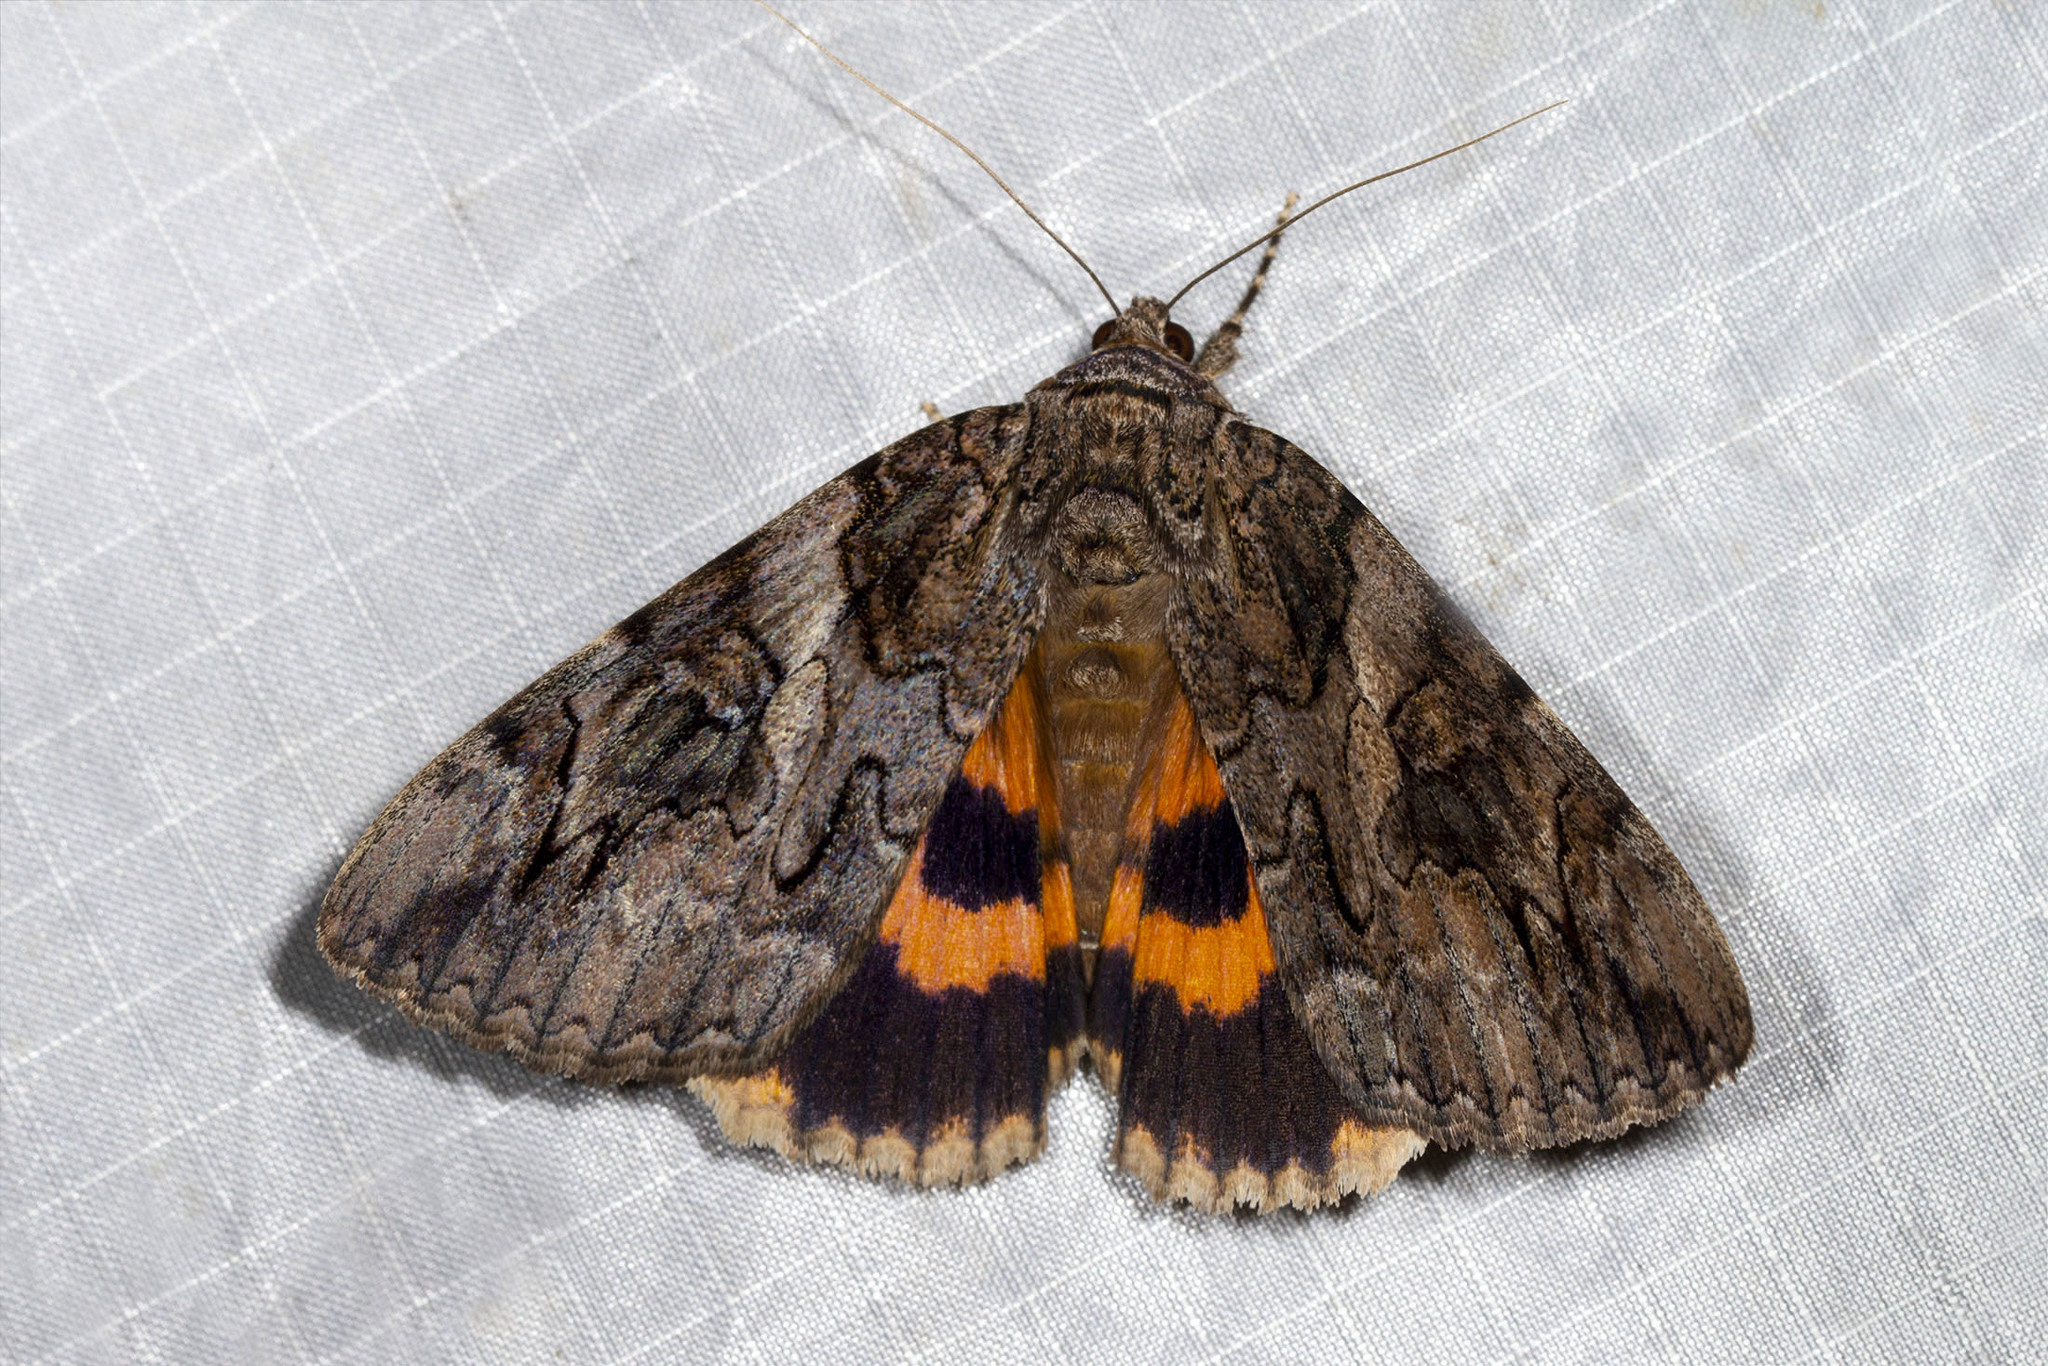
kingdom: Animalia
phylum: Arthropoda
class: Insecta
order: Lepidoptera
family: Erebidae
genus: Catocala
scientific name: Catocala piatrix
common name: The penitent underwing
